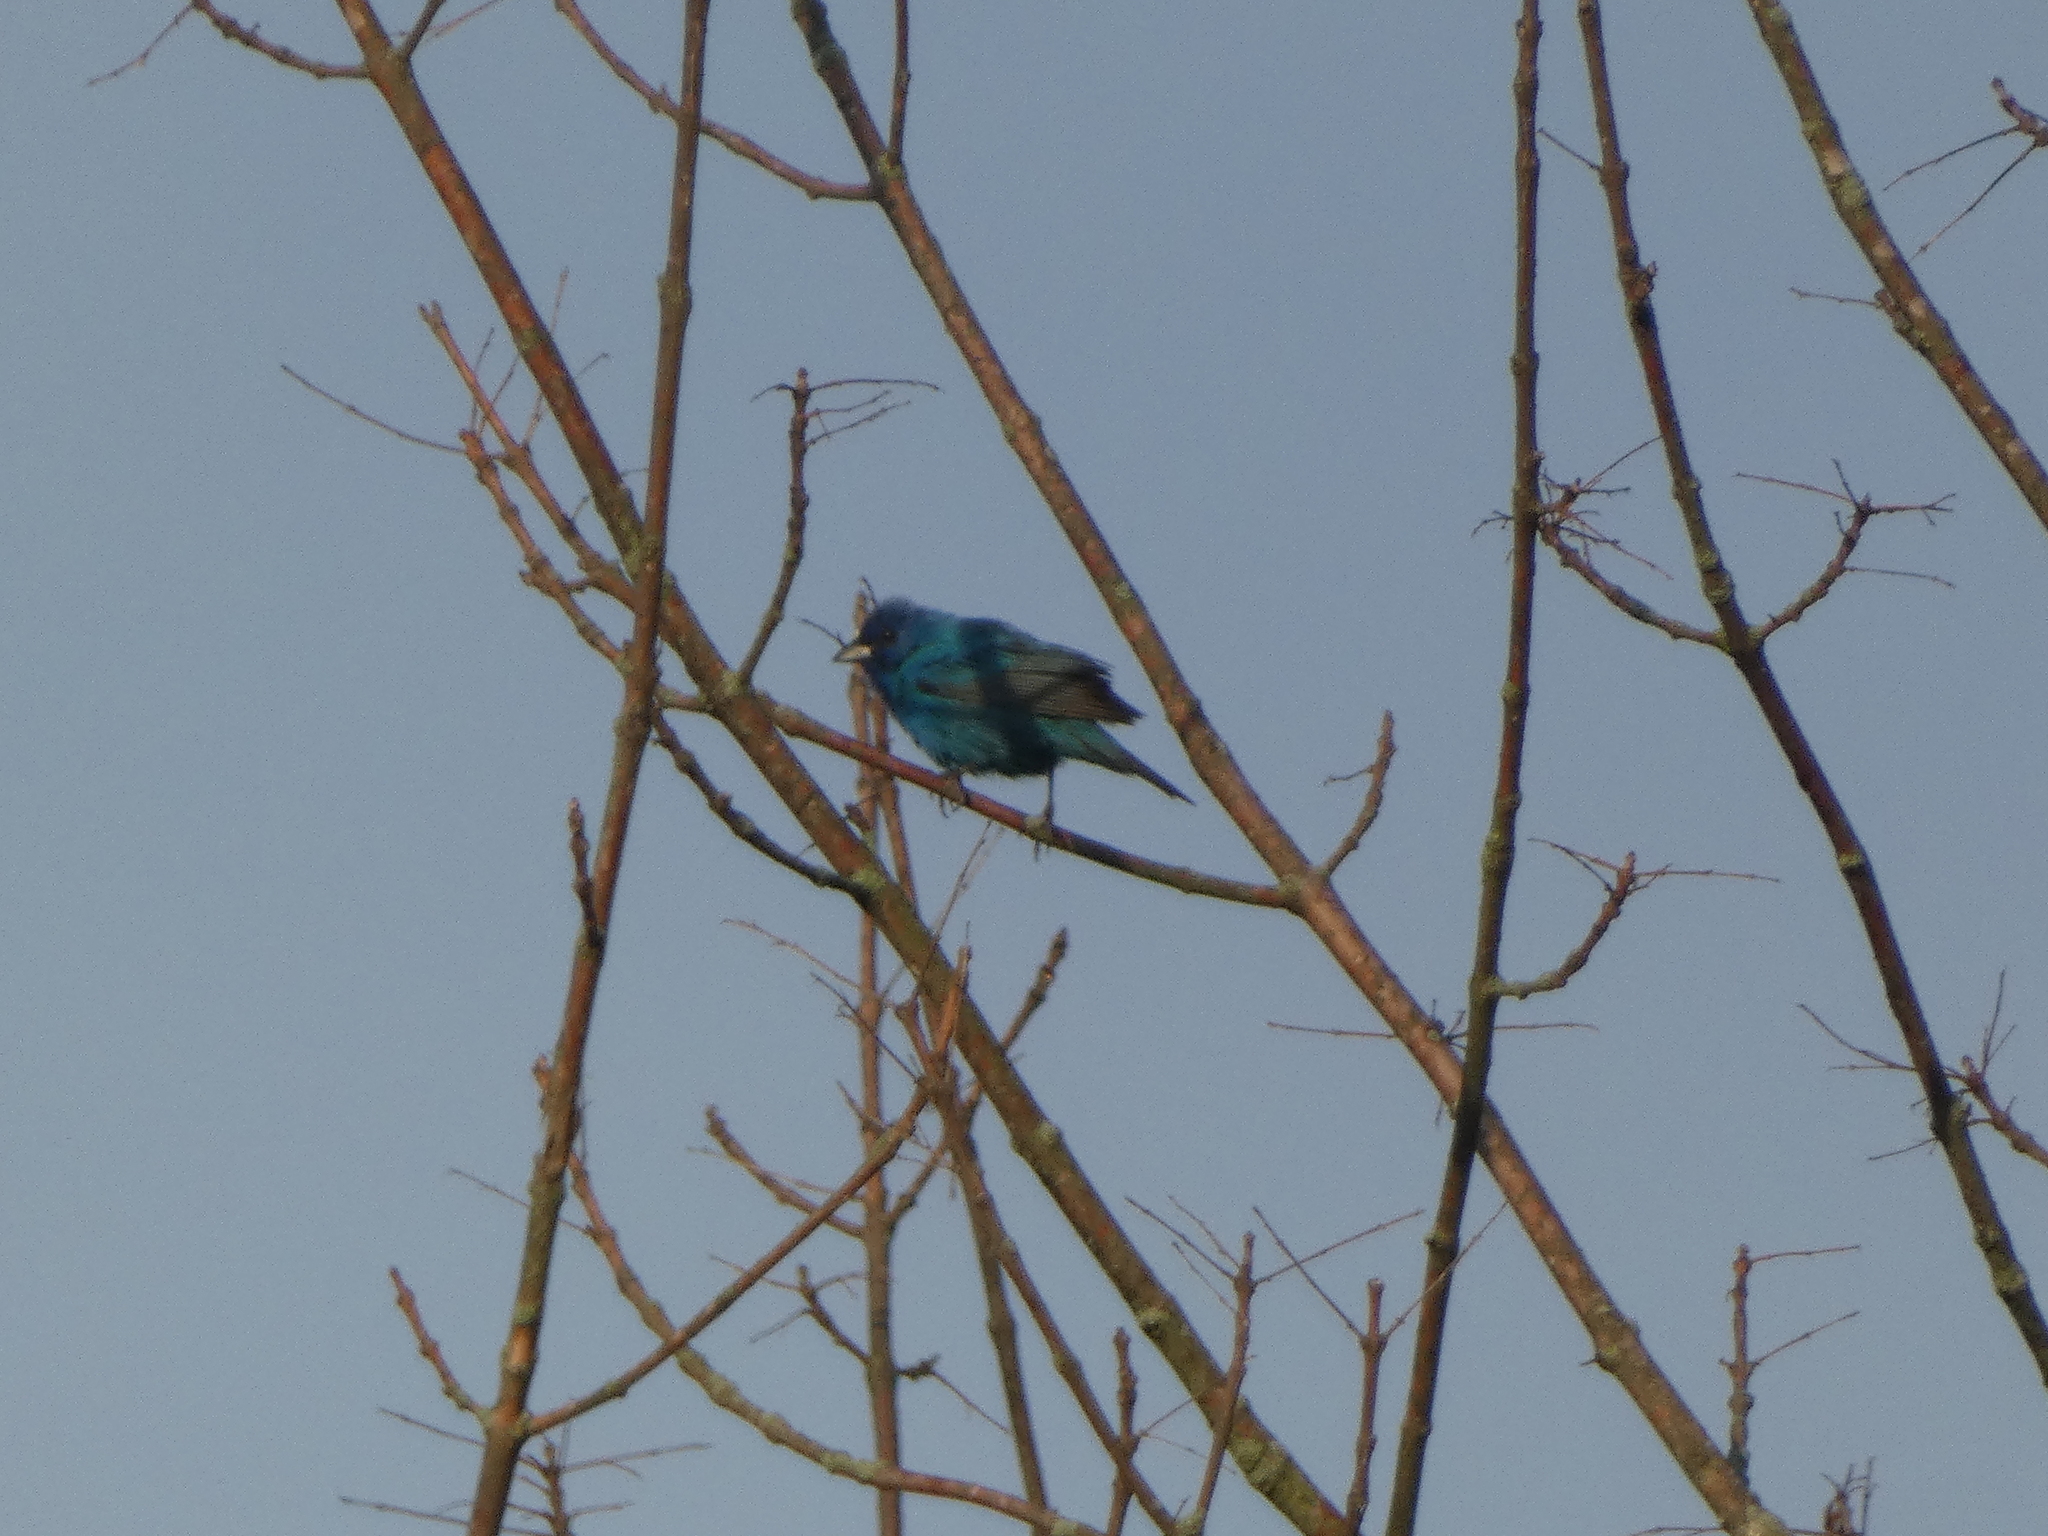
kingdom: Animalia
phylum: Chordata
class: Aves
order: Passeriformes
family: Cardinalidae
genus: Passerina
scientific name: Passerina cyanea
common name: Indigo bunting
